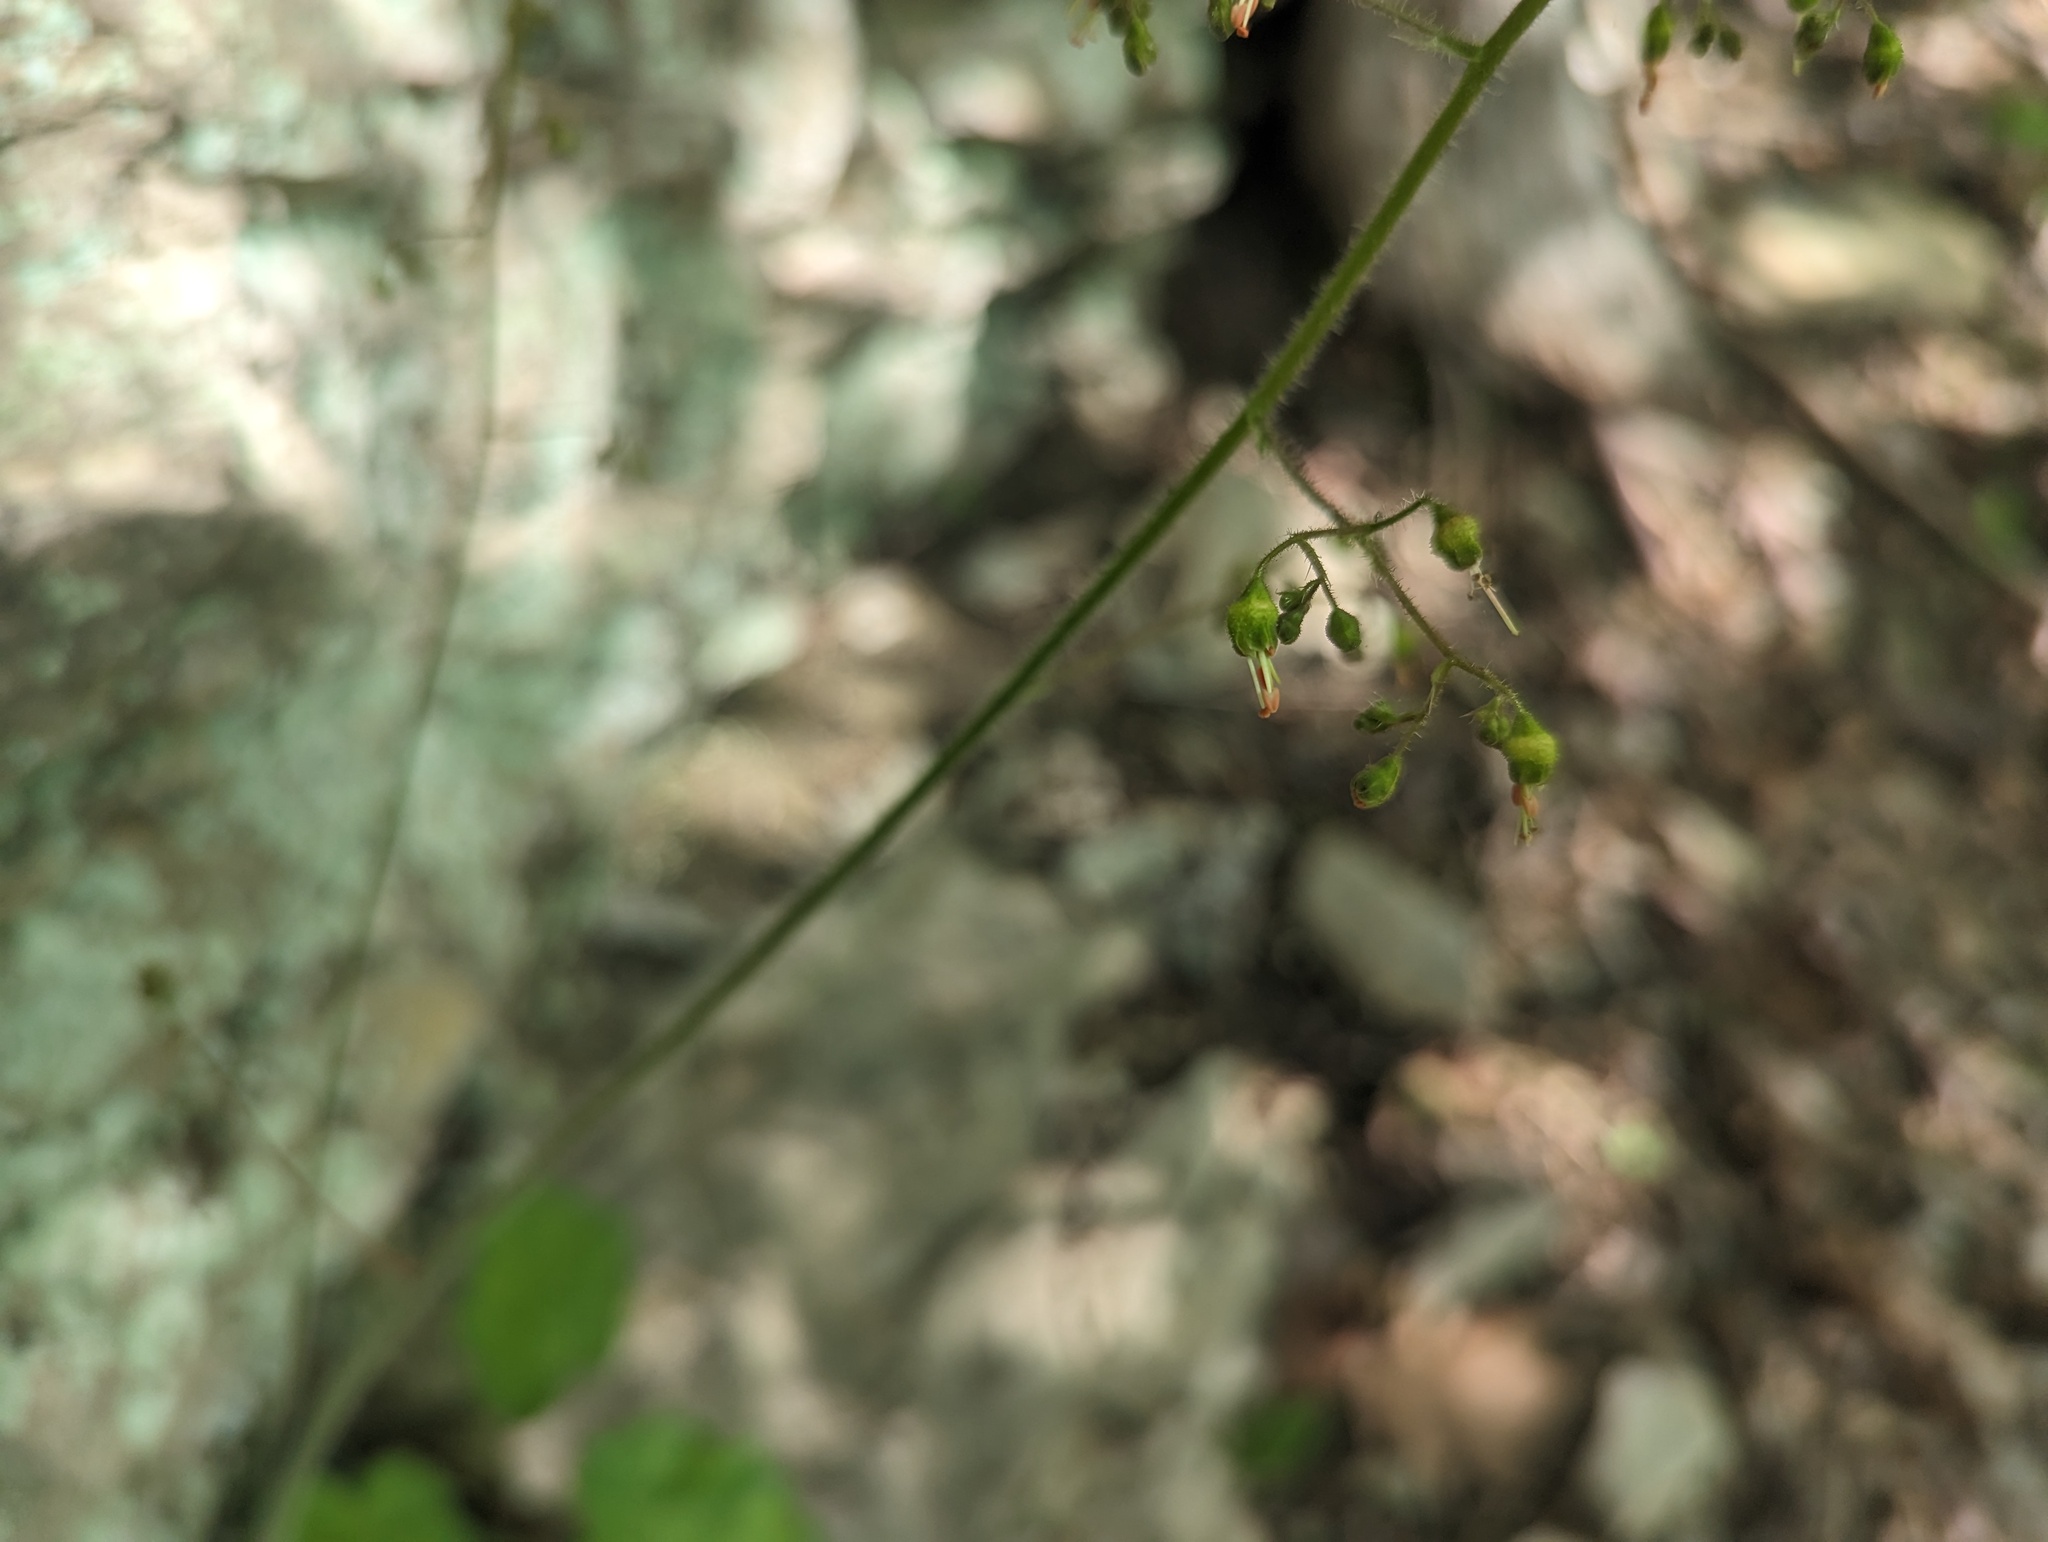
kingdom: Plantae
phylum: Tracheophyta
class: Magnoliopsida
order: Saxifragales
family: Saxifragaceae
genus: Heuchera
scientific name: Heuchera americana
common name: Alumroot
